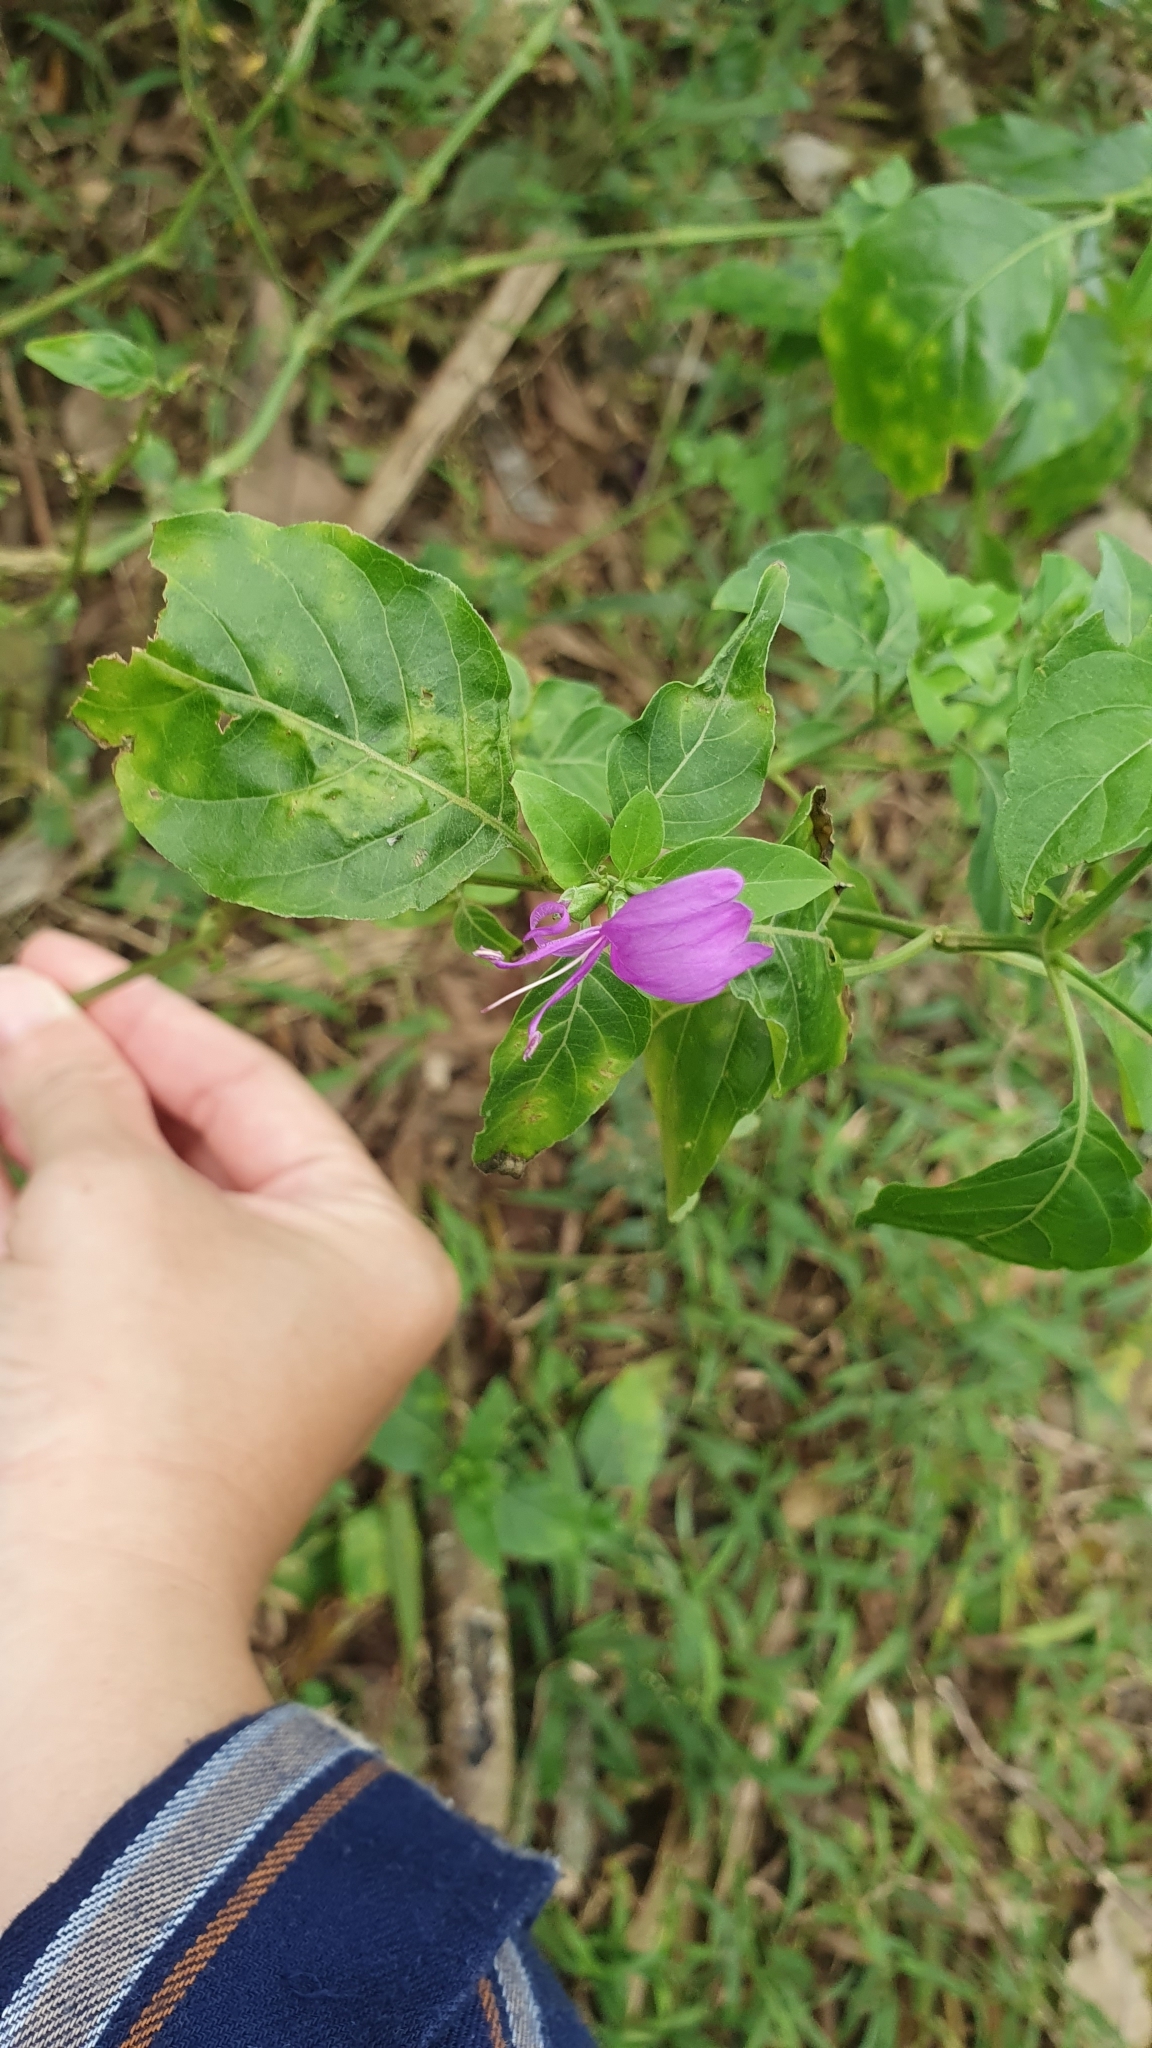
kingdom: Plantae
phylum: Tracheophyta
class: Magnoliopsida
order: Lamiales
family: Acanthaceae
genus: Hypoestes
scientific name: Hypoestes purpurea
